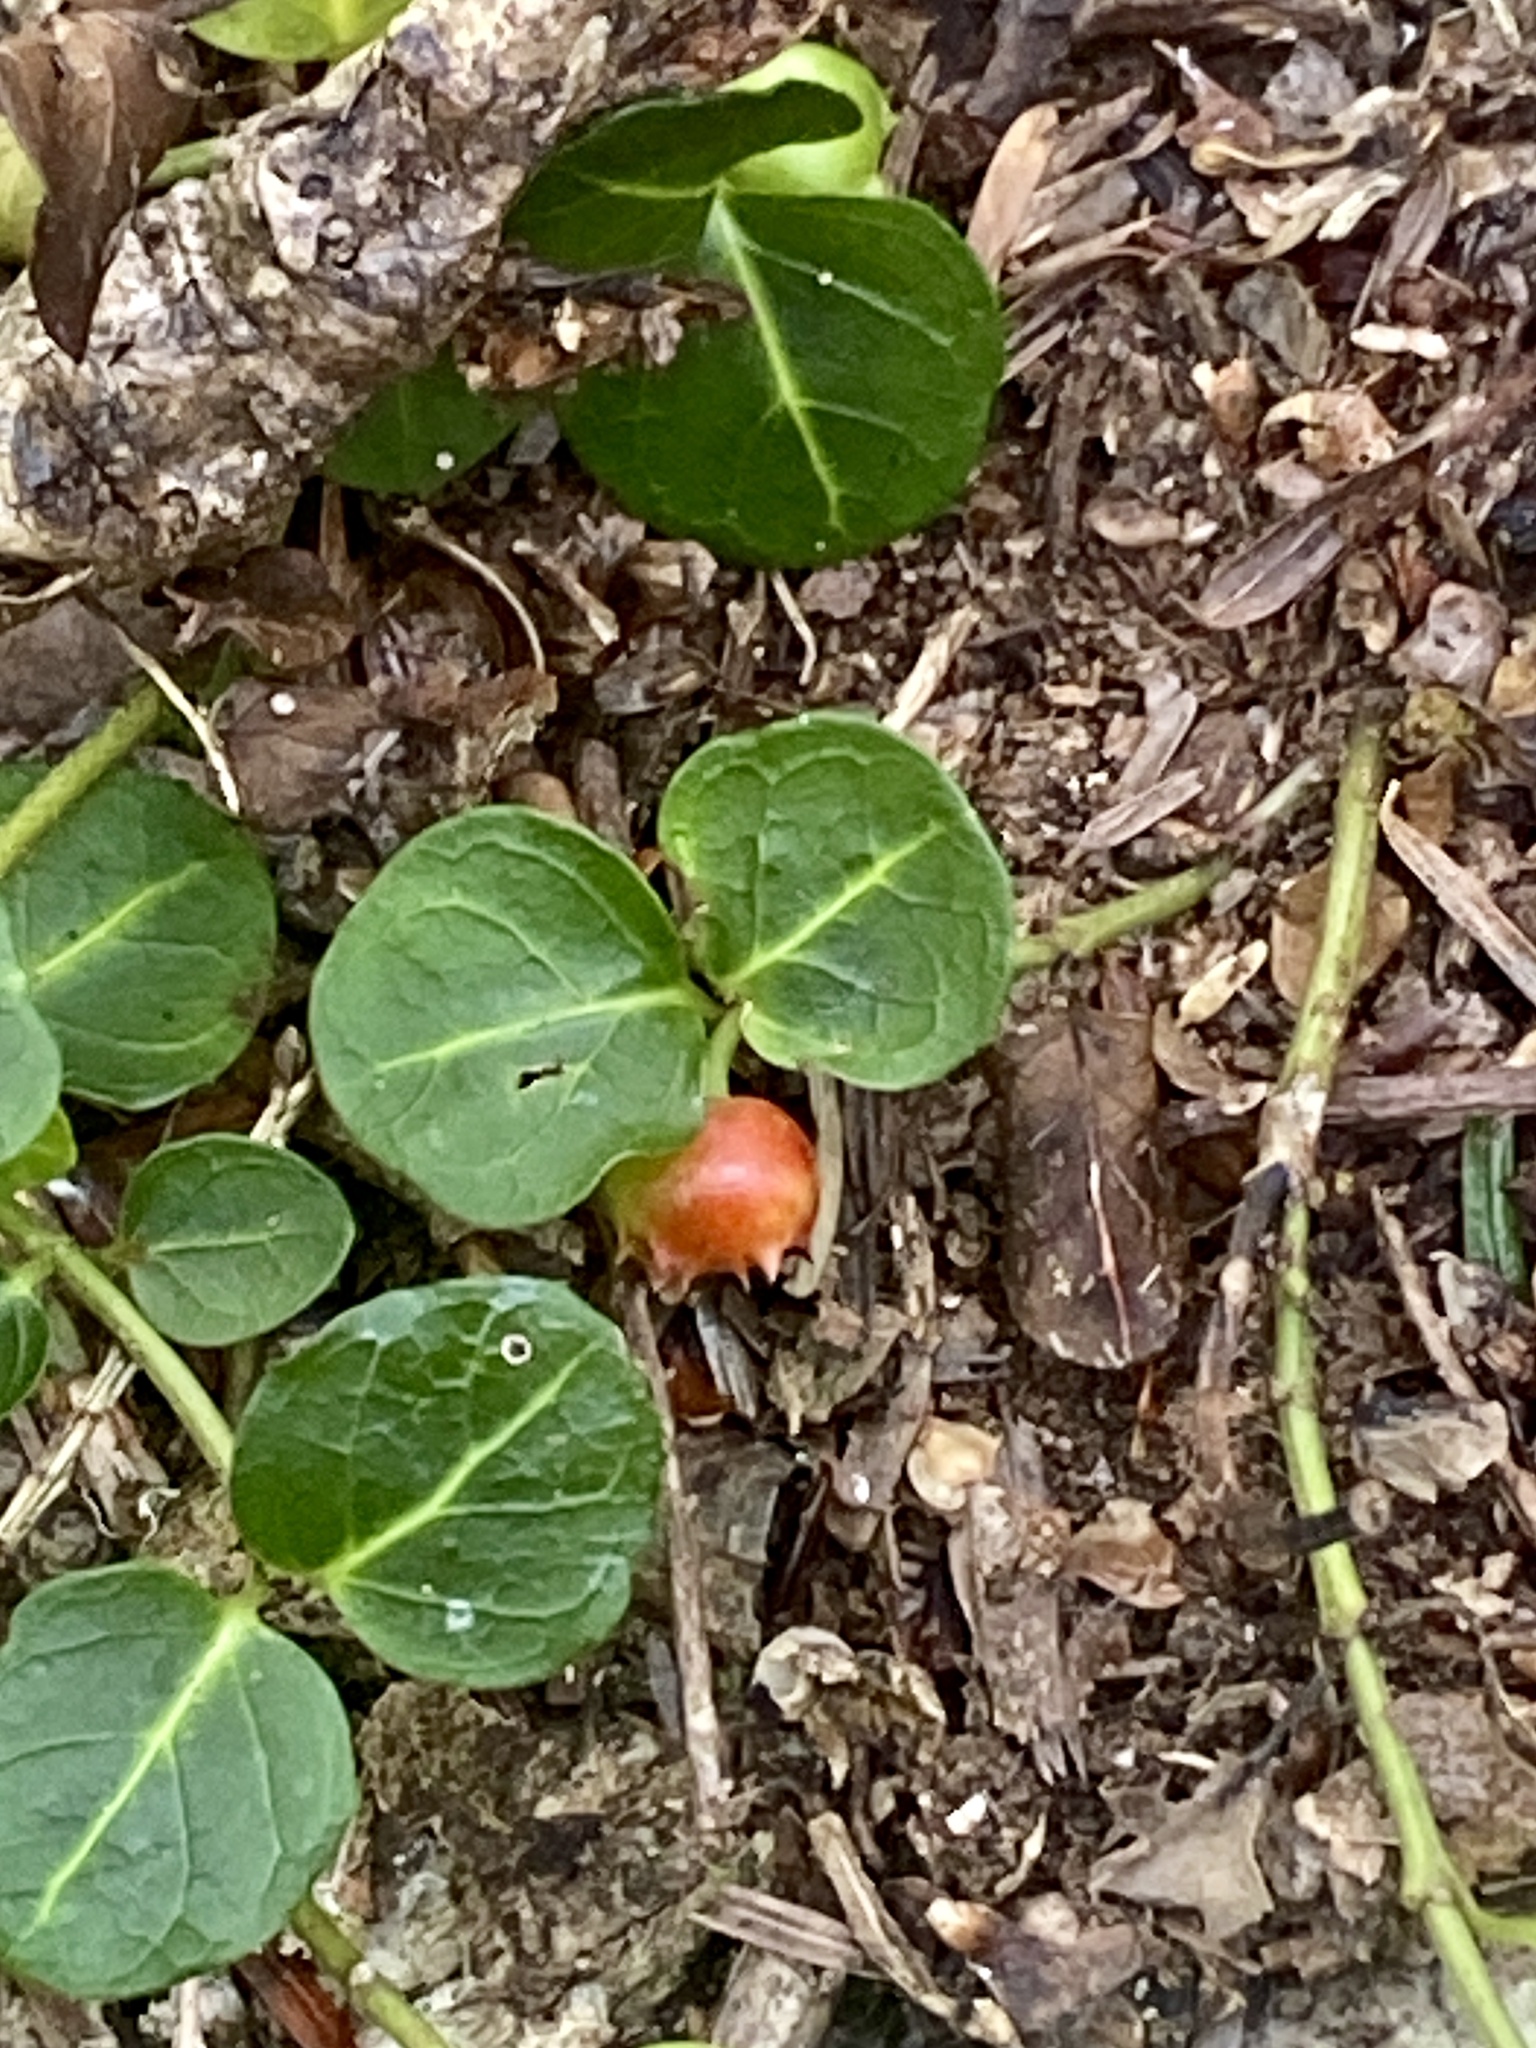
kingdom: Plantae
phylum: Tracheophyta
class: Magnoliopsida
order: Gentianales
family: Rubiaceae
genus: Mitchella
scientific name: Mitchella repens
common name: Partridge-berry
